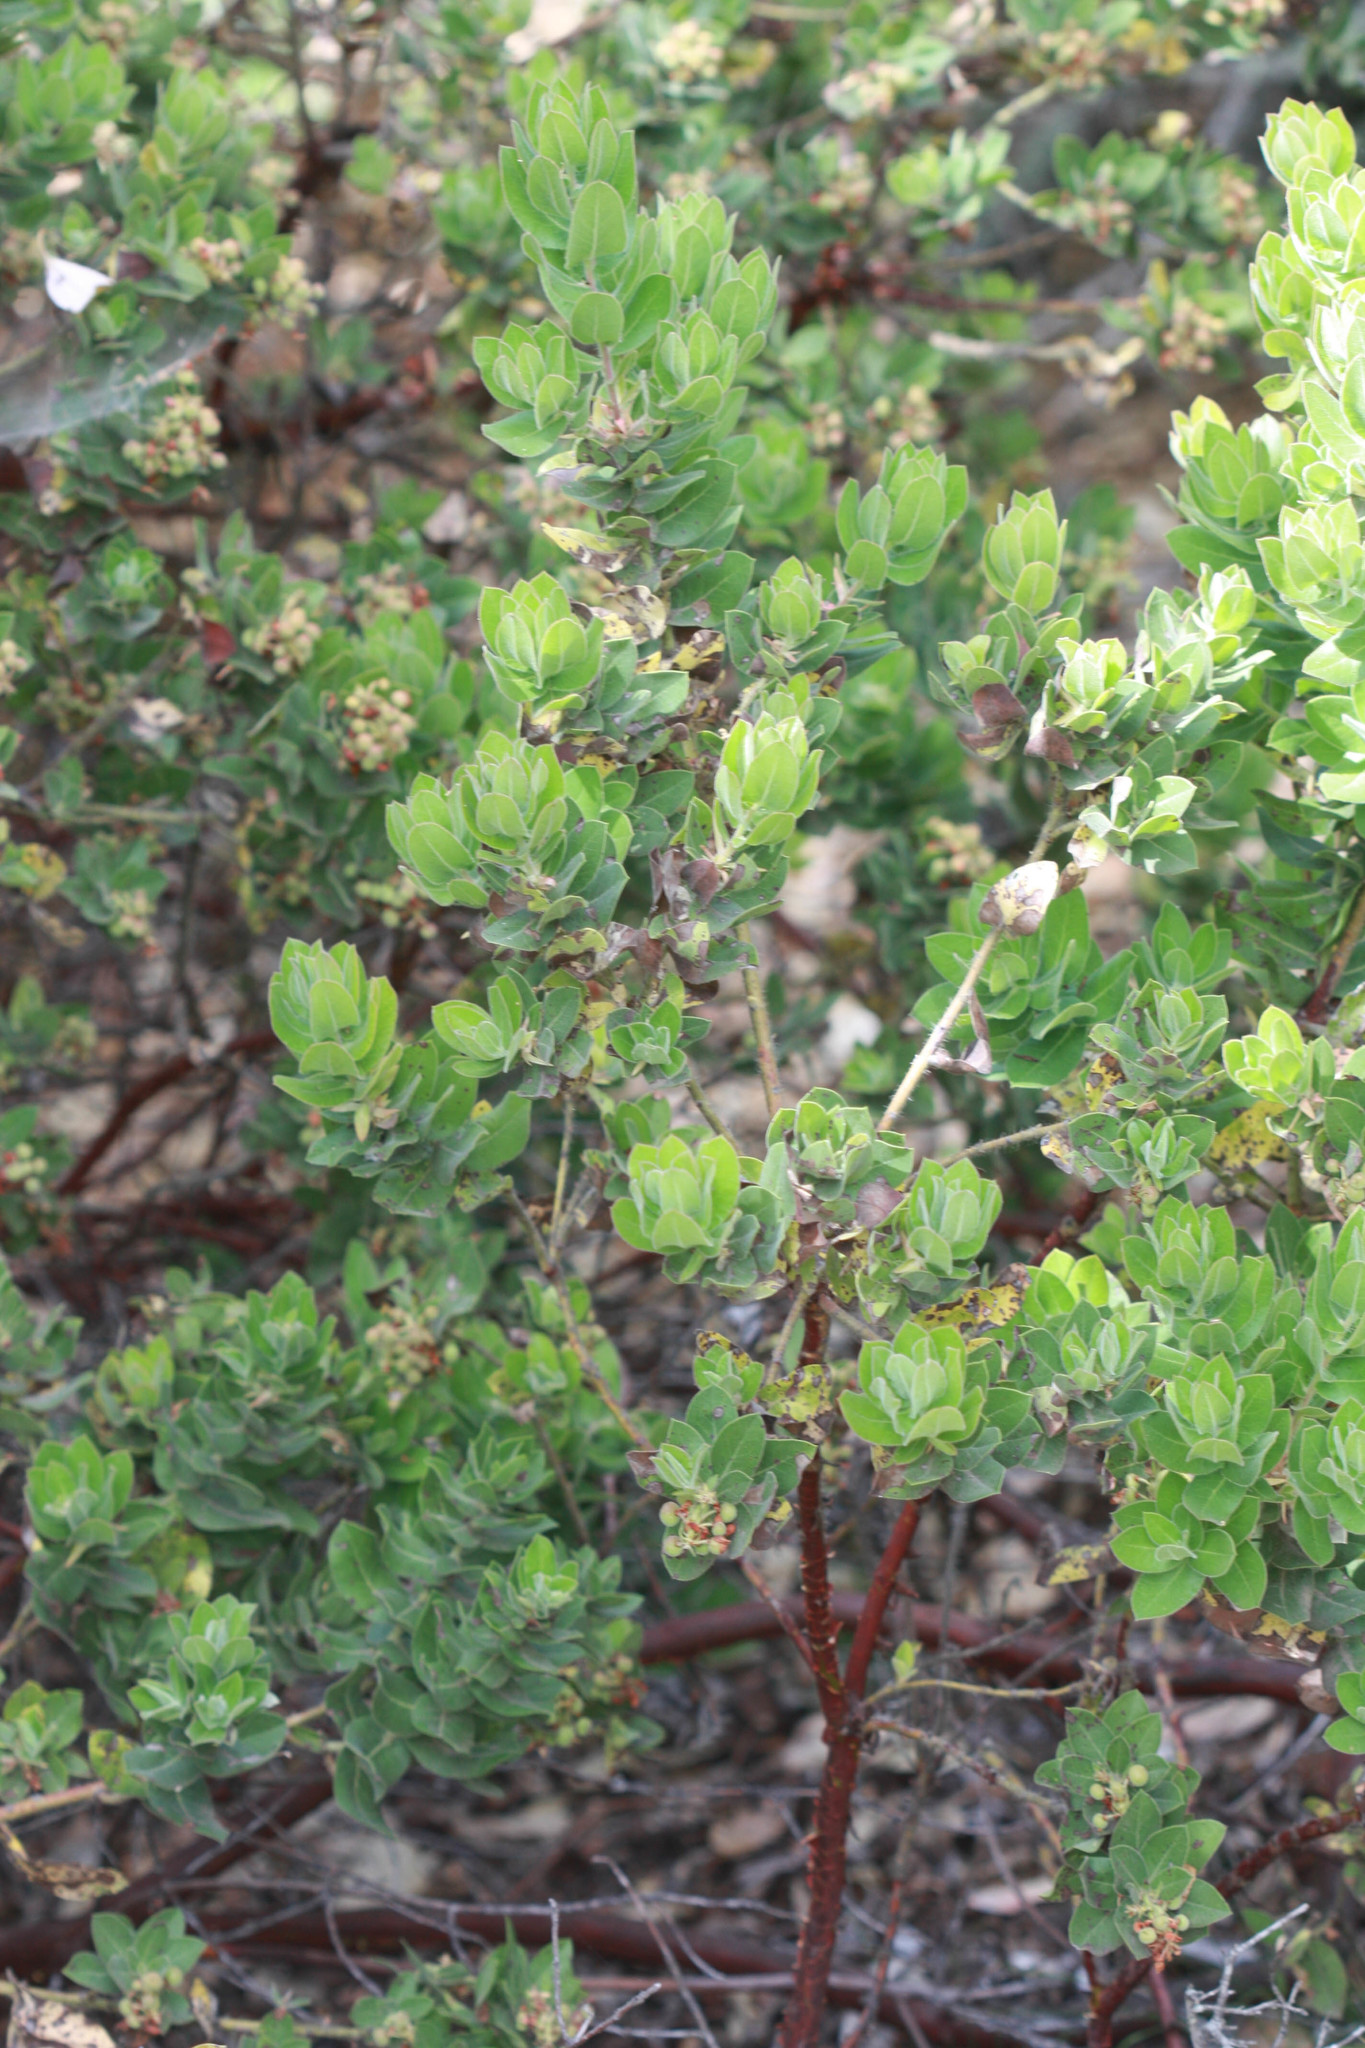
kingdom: Plantae
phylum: Tracheophyta
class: Magnoliopsida
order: Ericales
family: Ericaceae
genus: Arctostaphylos
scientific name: Arctostaphylos regismontana
